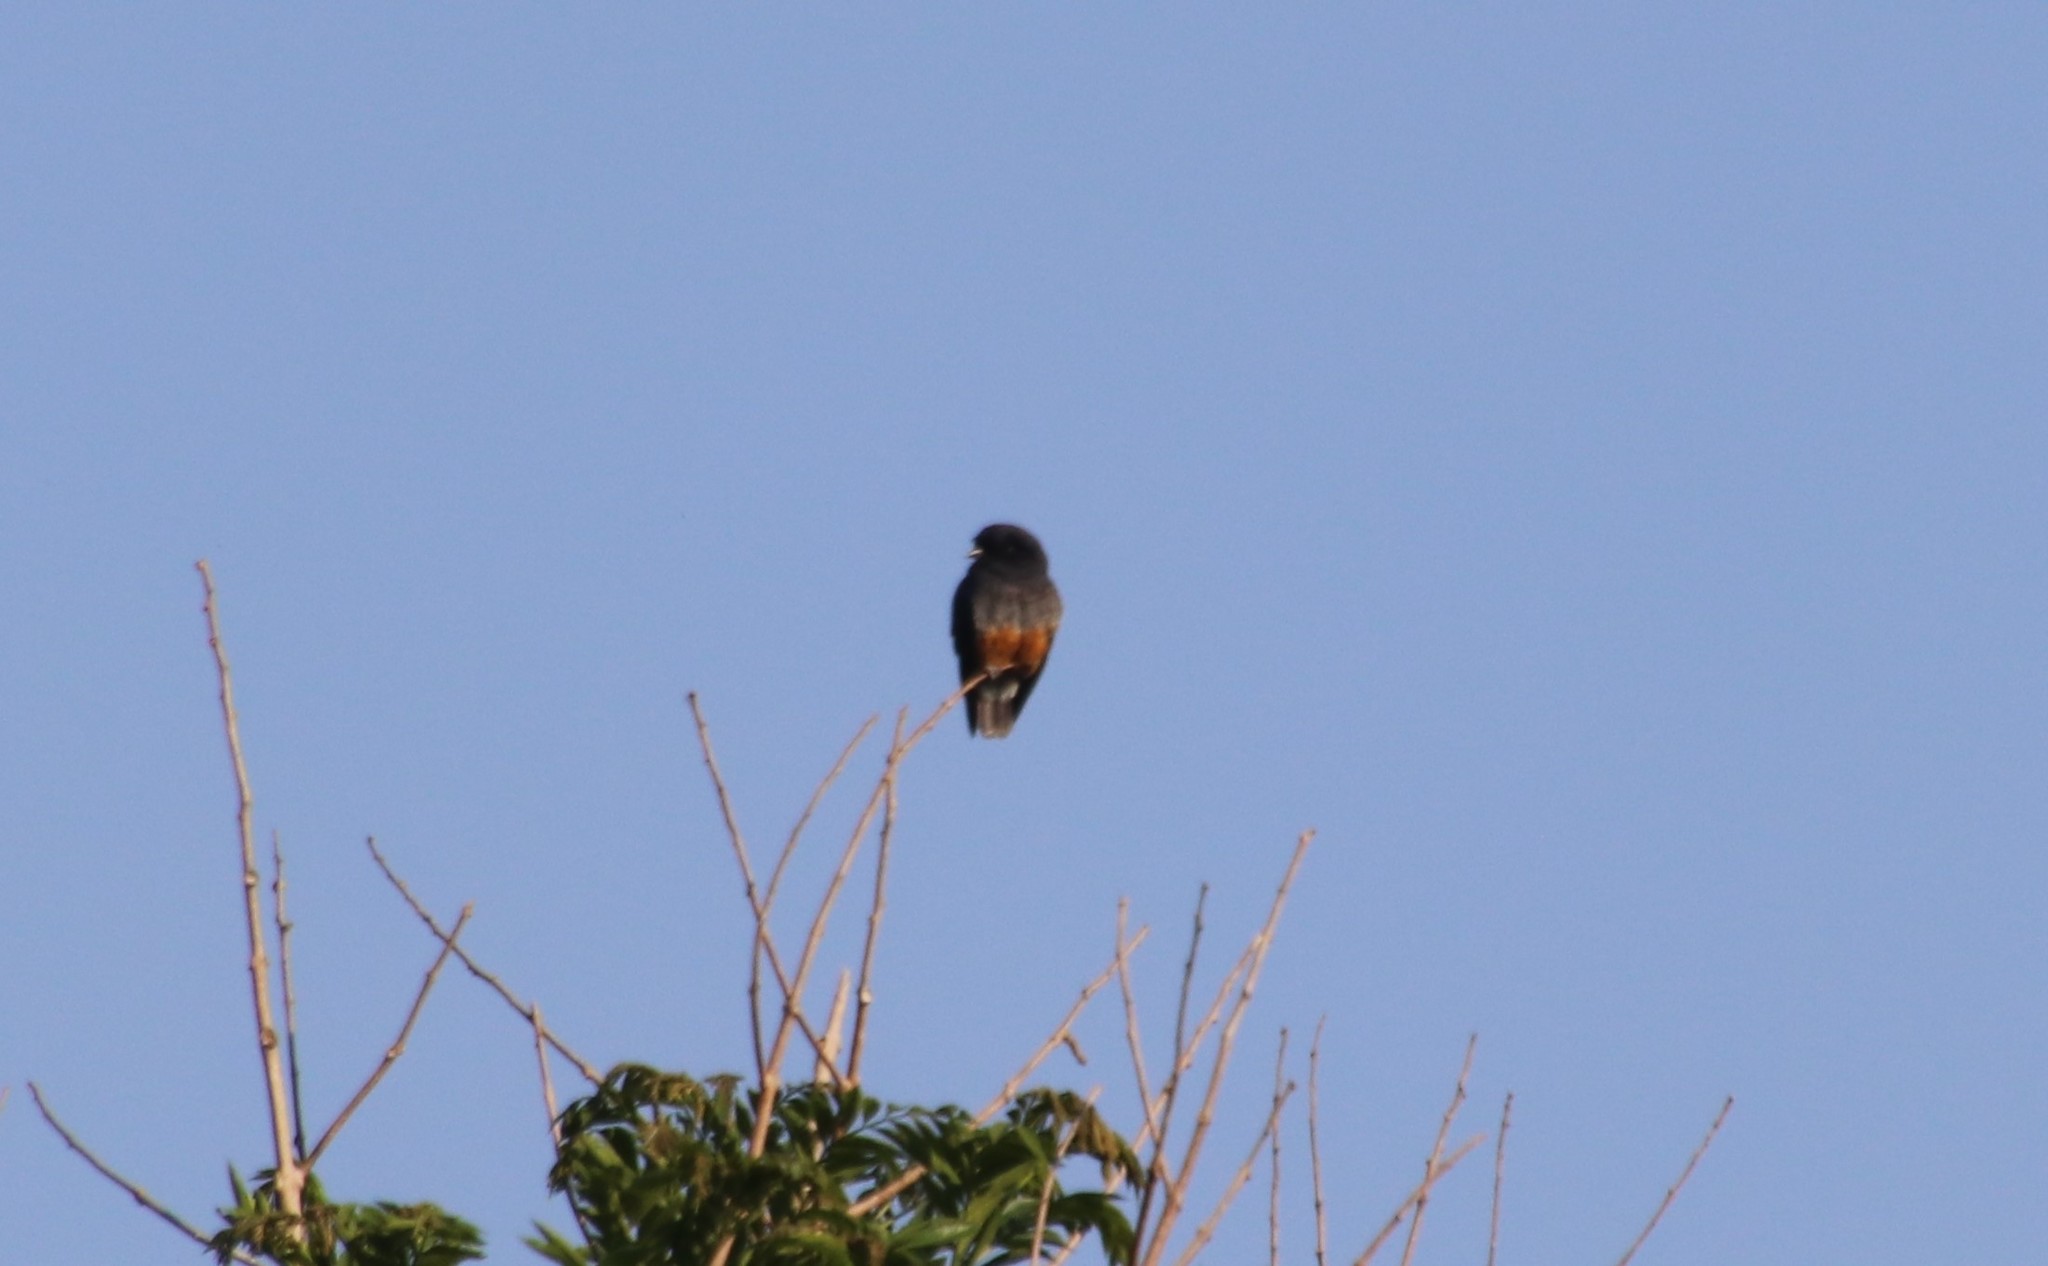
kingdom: Animalia
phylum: Chordata
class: Aves
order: Piciformes
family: Bucconidae
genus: Chelidoptera
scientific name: Chelidoptera tenebrosa
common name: Swallow-winged puffbird
